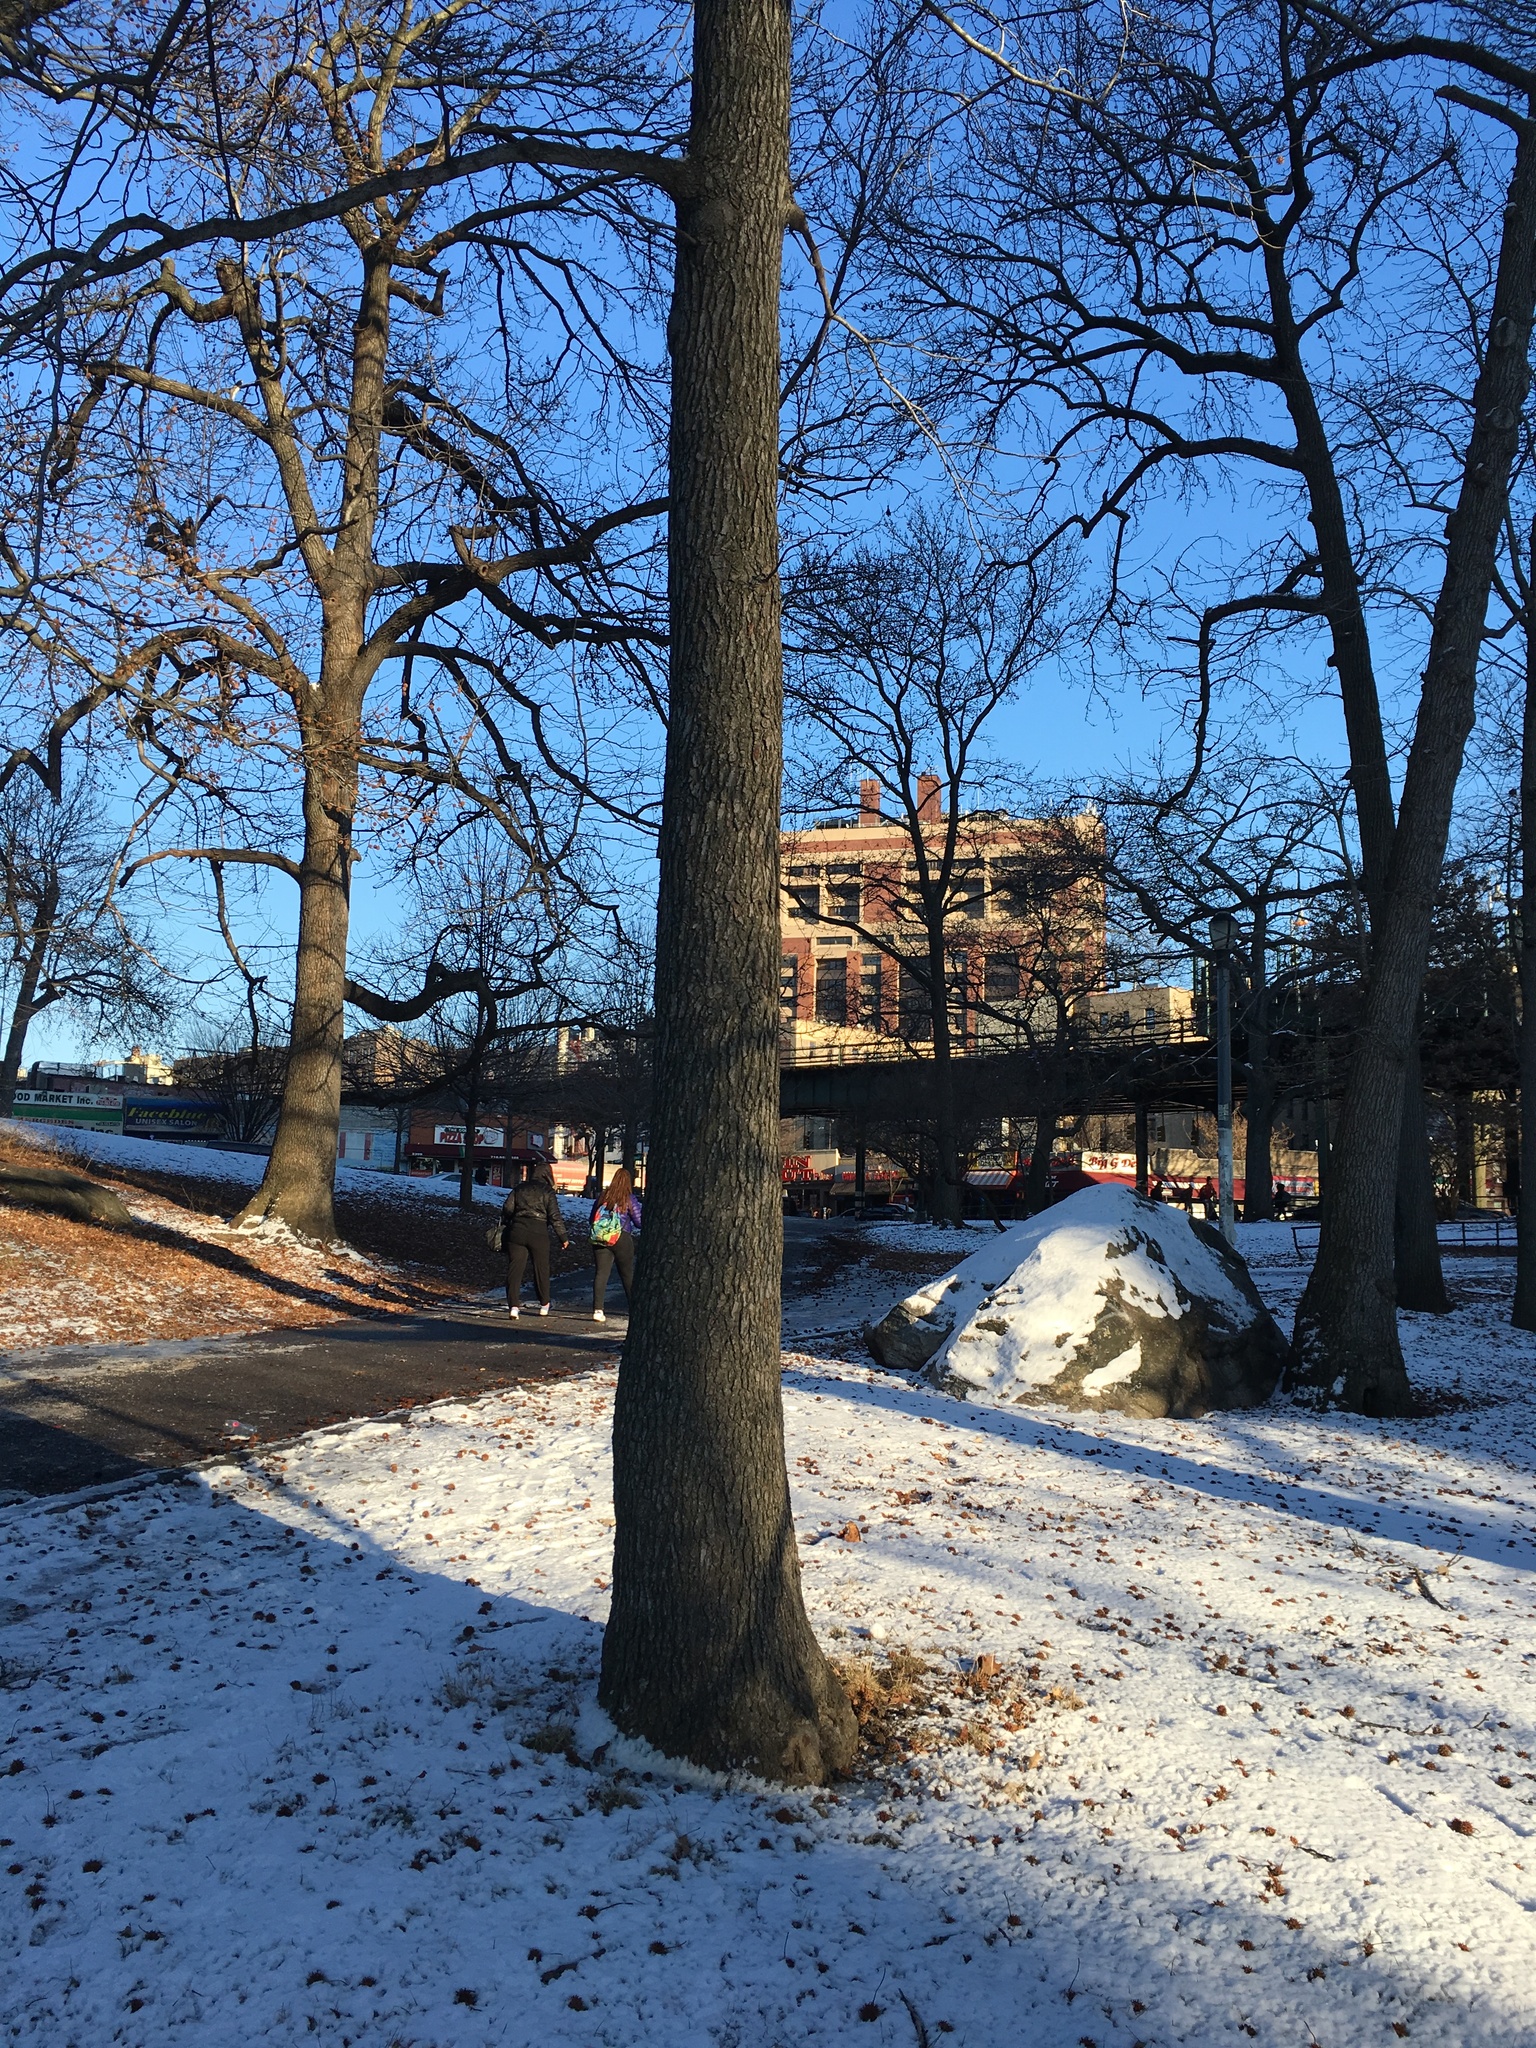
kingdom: Plantae
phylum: Tracheophyta
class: Magnoliopsida
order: Saxifragales
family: Altingiaceae
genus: Liquidambar
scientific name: Liquidambar styraciflua
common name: Sweet gum
